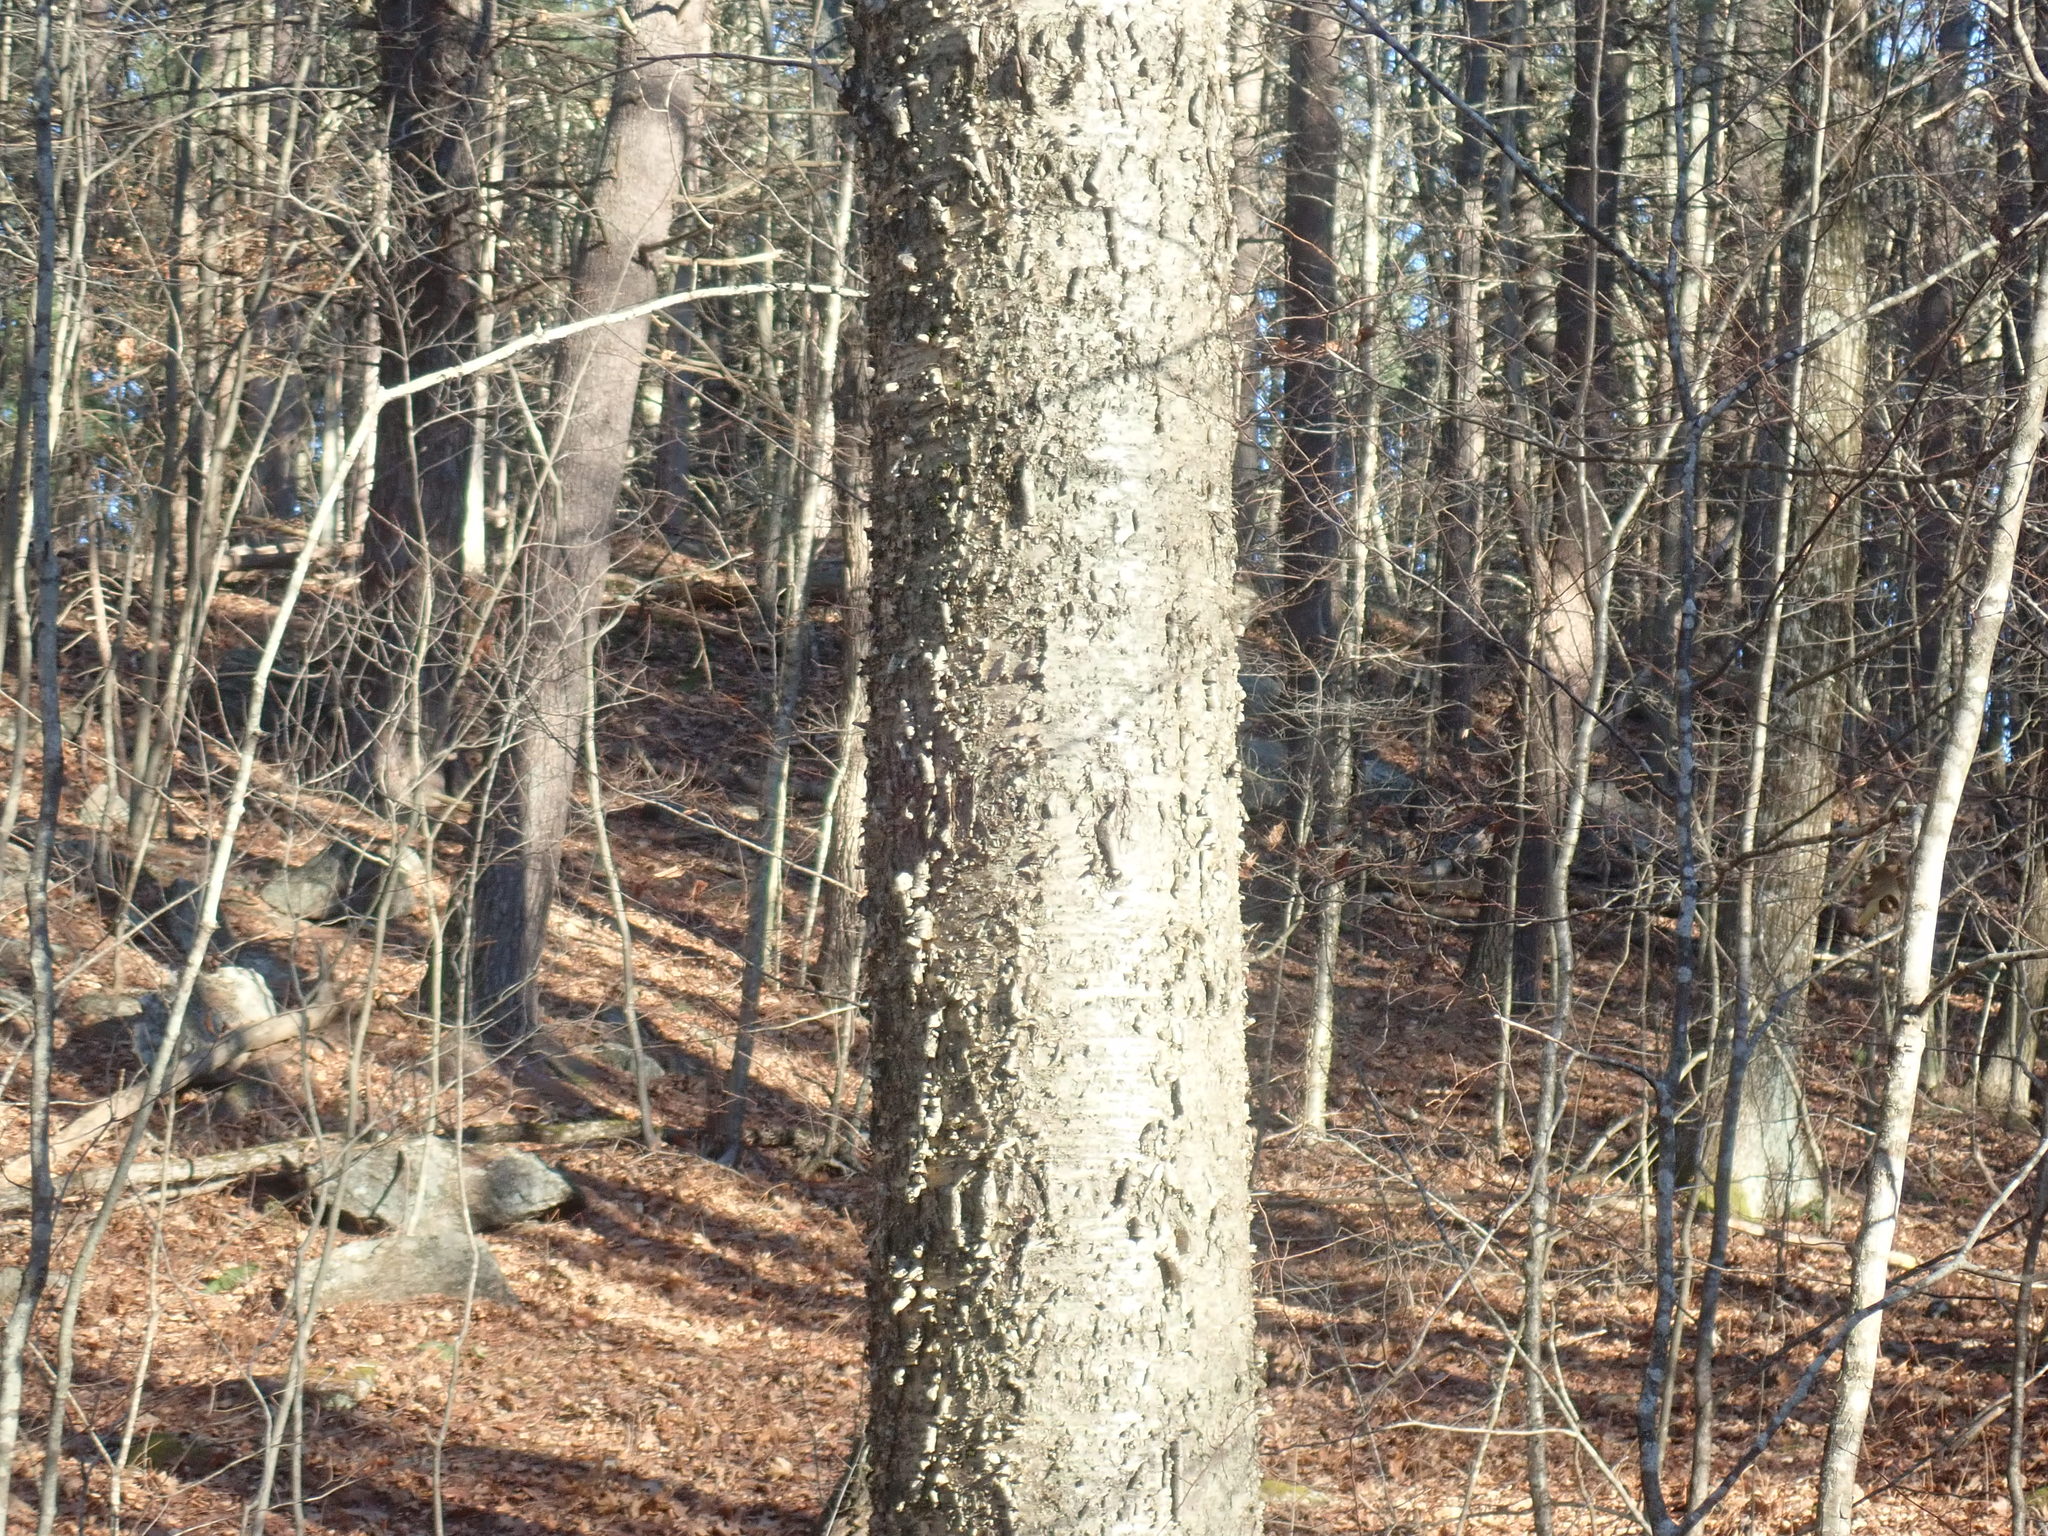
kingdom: Plantae
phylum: Tracheophyta
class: Magnoliopsida
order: Fagales
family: Betulaceae
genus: Betula
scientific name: Betula alleghaniensis
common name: Yellow birch
